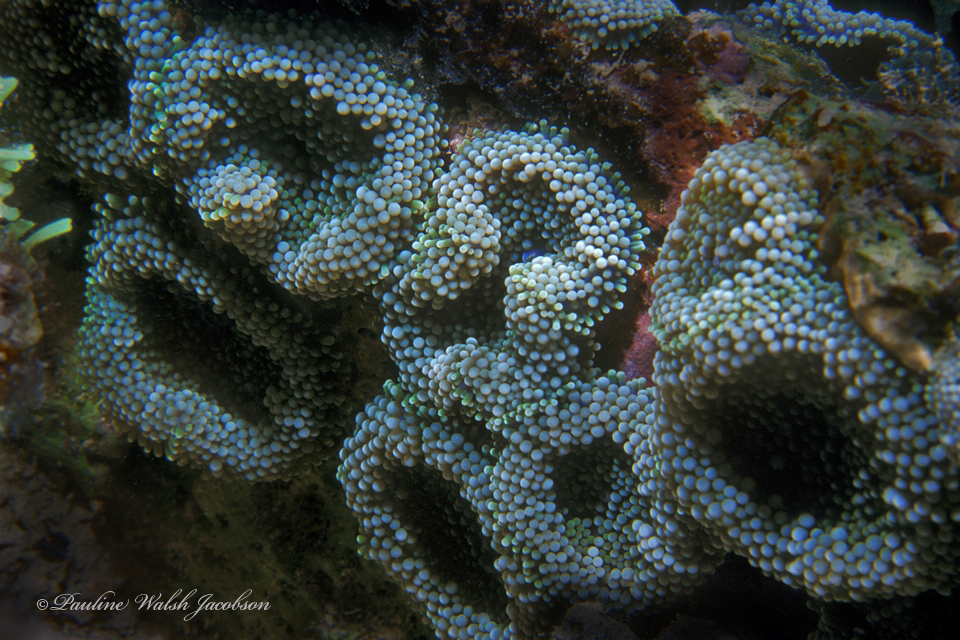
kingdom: Animalia
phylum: Cnidaria
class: Anthozoa
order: Corallimorpharia
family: Ricordeidae
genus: Ricordea
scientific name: Ricordea florida
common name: False coral
